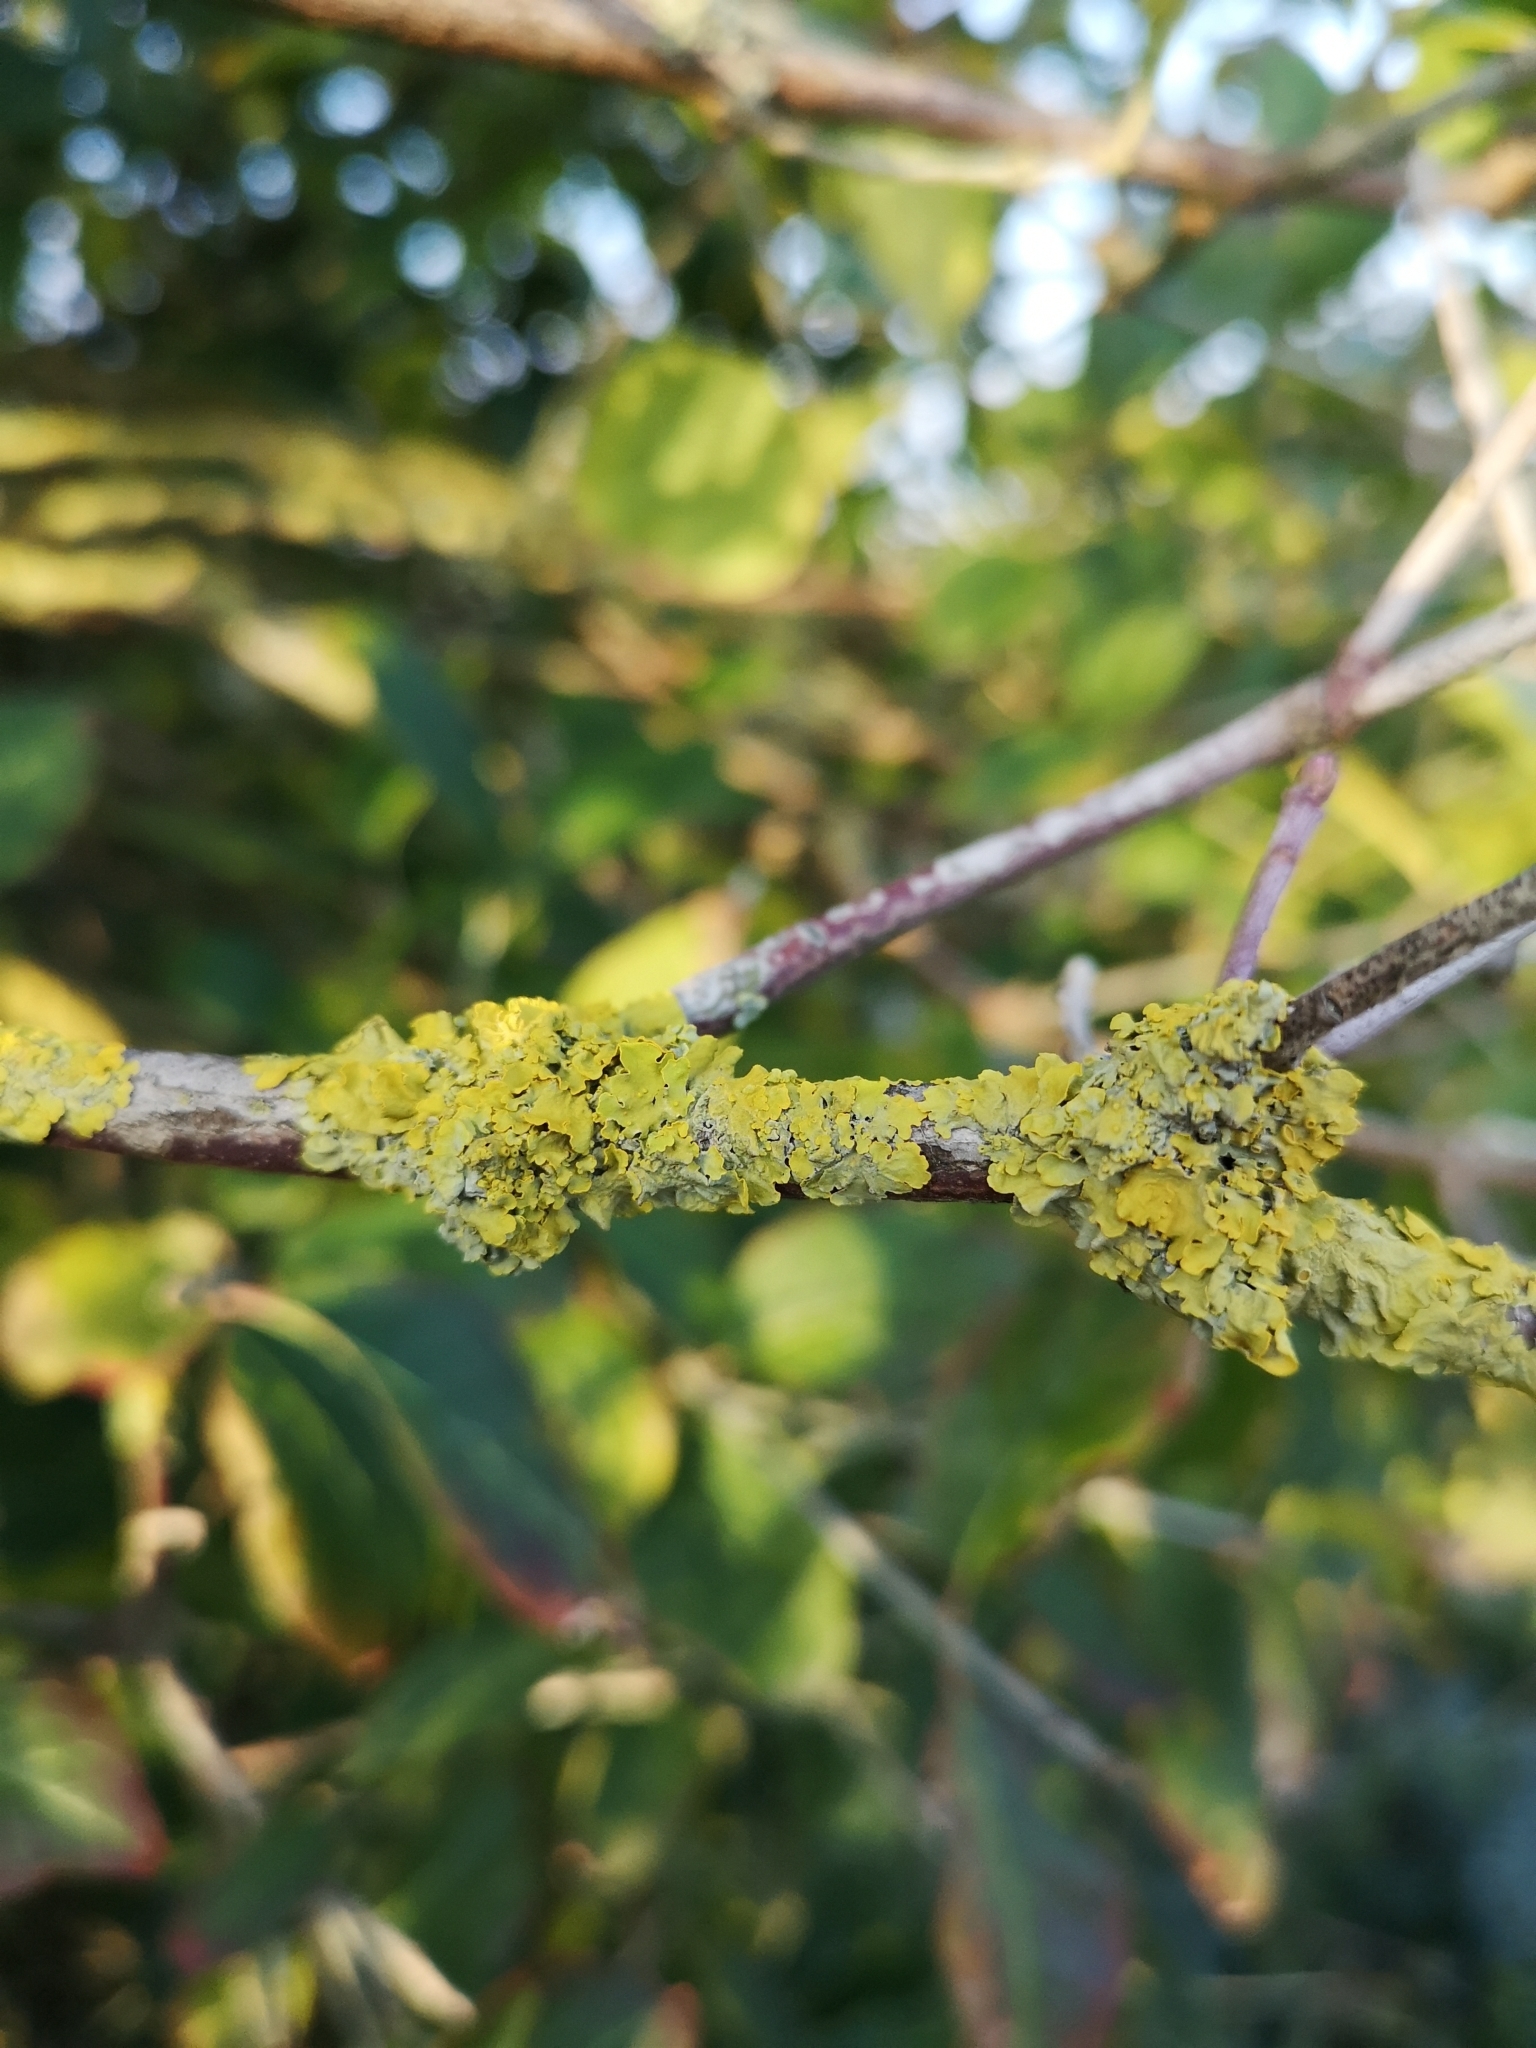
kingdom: Fungi
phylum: Ascomycota
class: Lecanoromycetes
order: Teloschistales
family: Teloschistaceae
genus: Xanthoria
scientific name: Xanthoria parietina
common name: Common orange lichen
